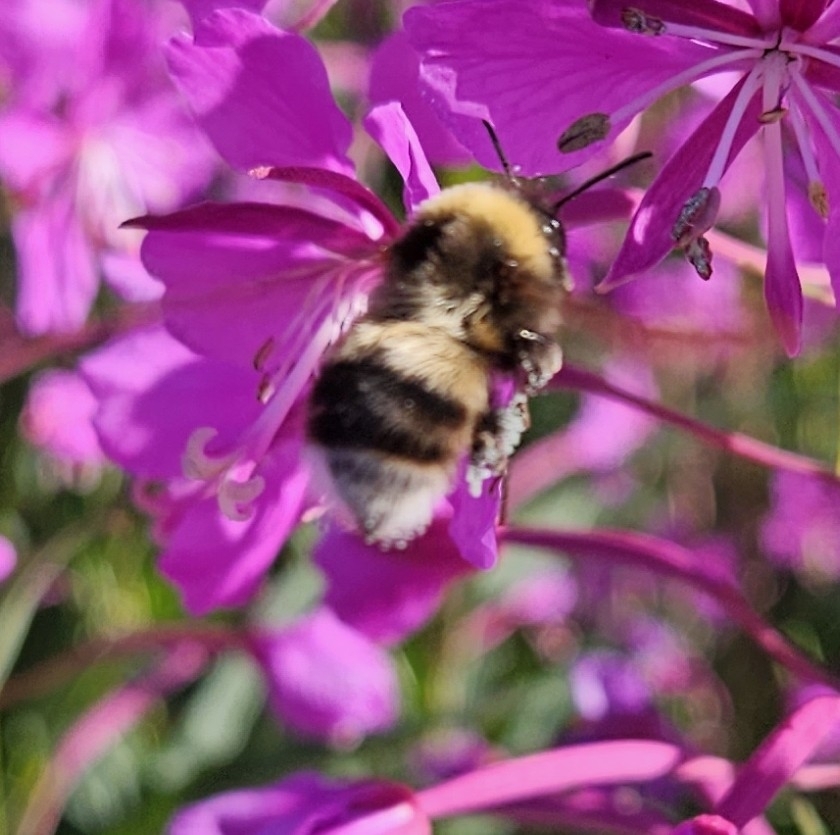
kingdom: Animalia
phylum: Arthropoda
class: Insecta
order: Hymenoptera
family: Apidae
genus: Bombus
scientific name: Bombus lucorum
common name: White-tailed bumblebee
